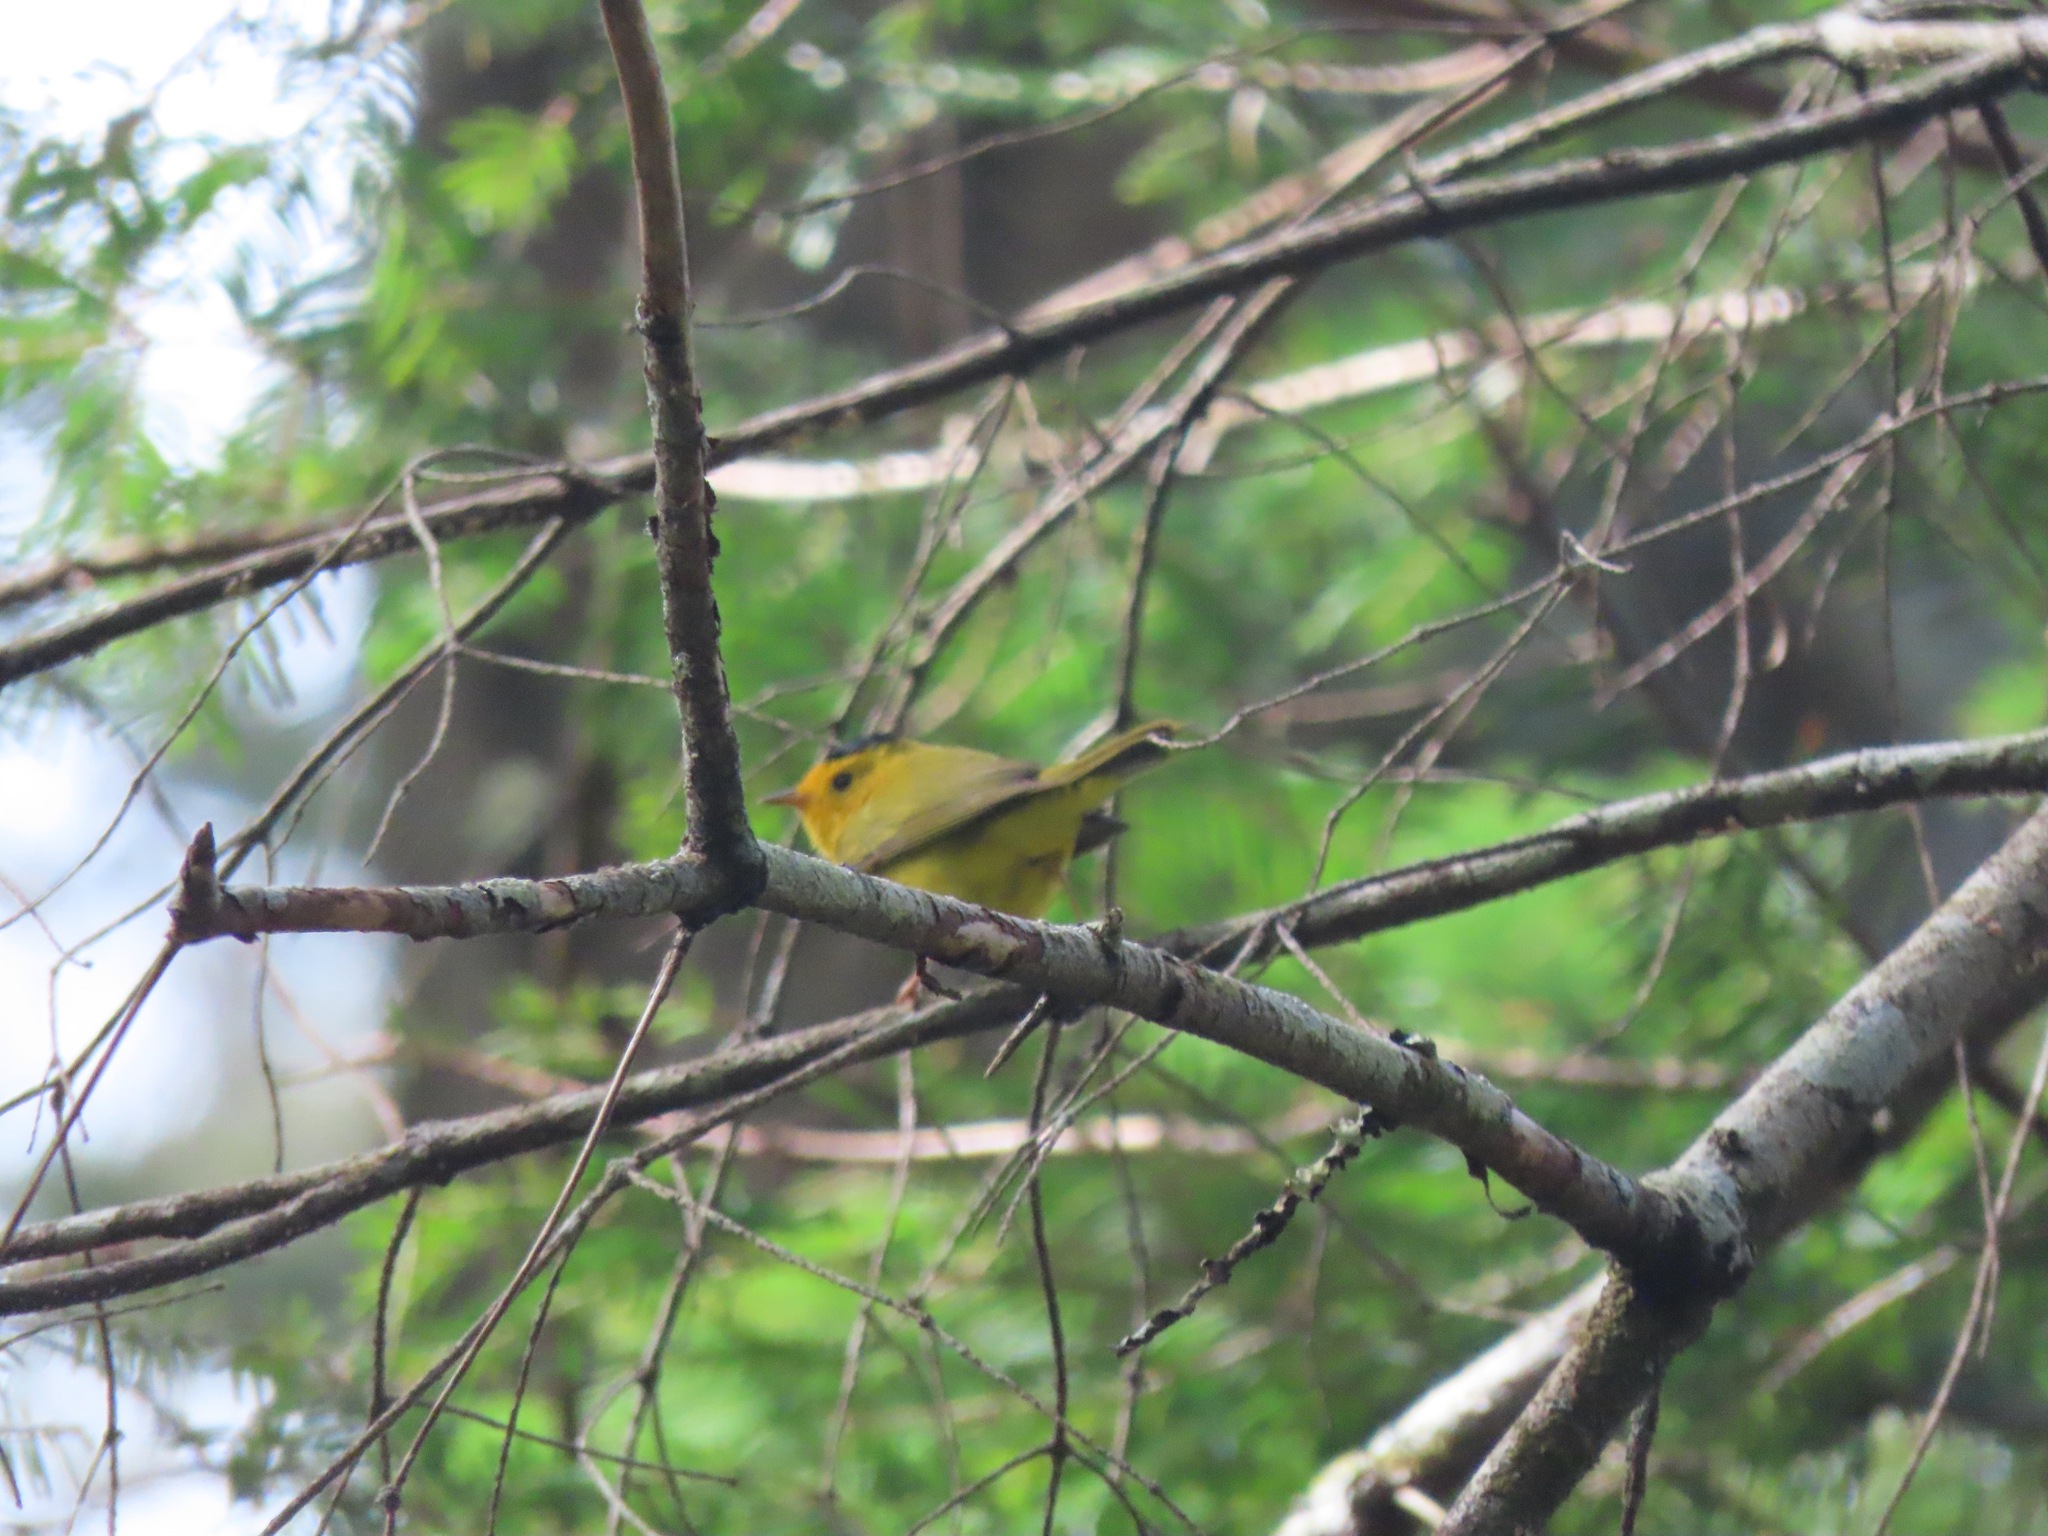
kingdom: Animalia
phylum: Chordata
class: Aves
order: Passeriformes
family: Parulidae
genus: Cardellina
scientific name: Cardellina pusilla
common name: Wilson's warbler
